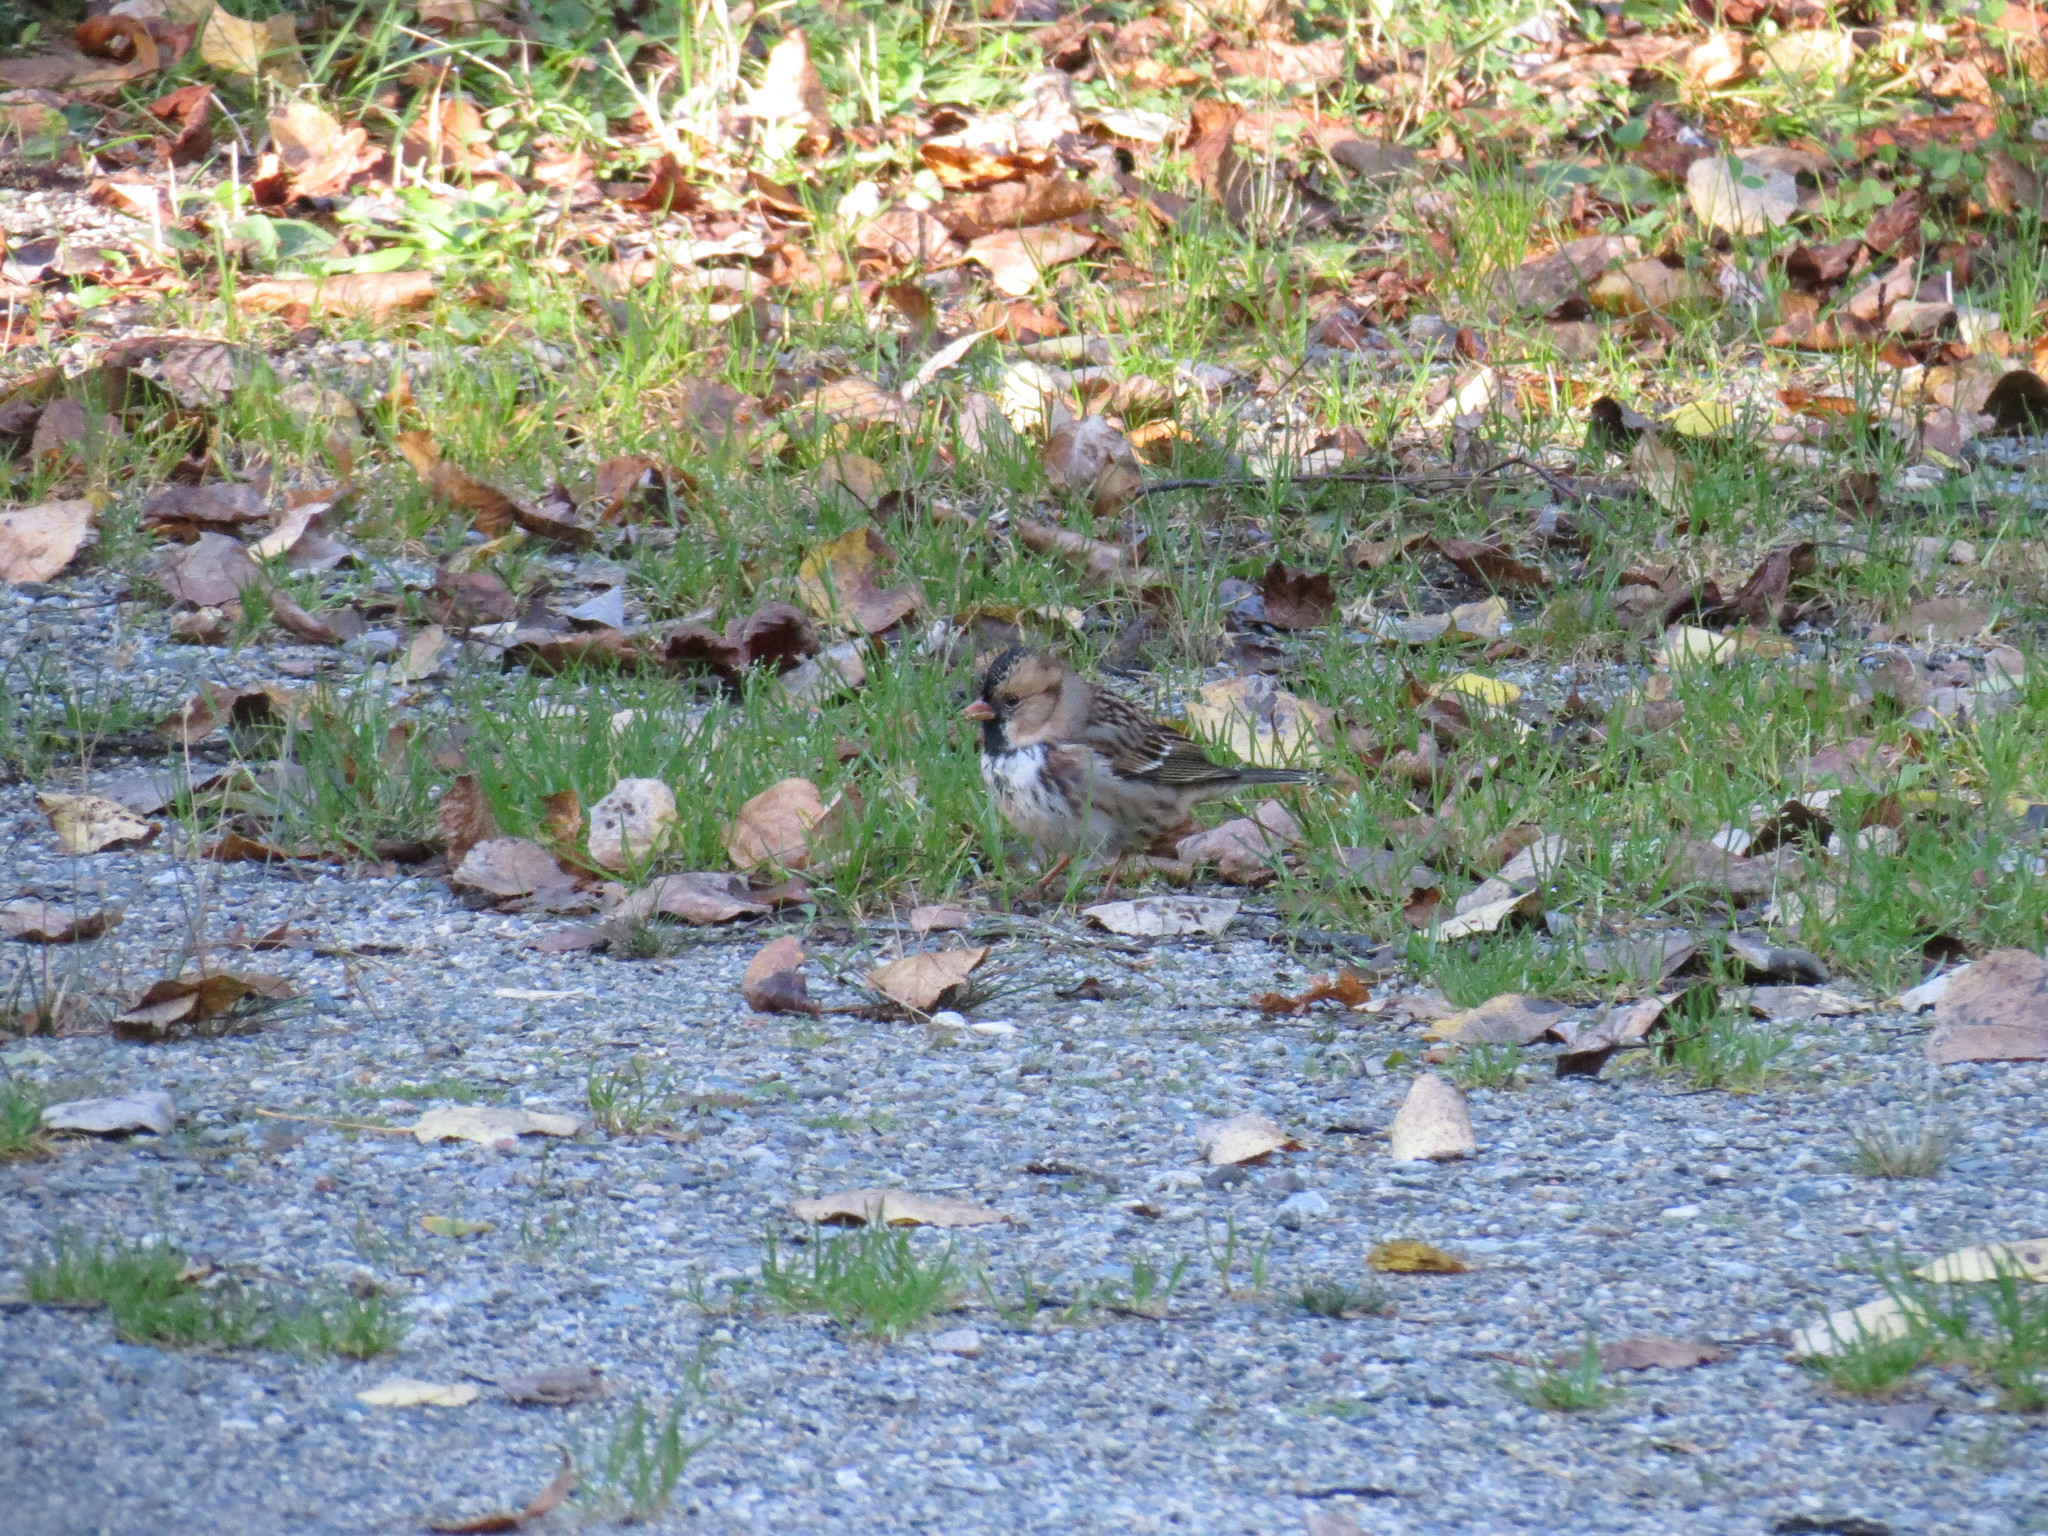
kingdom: Animalia
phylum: Chordata
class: Aves
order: Passeriformes
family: Passerellidae
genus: Zonotrichia
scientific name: Zonotrichia querula
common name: Harris's sparrow
